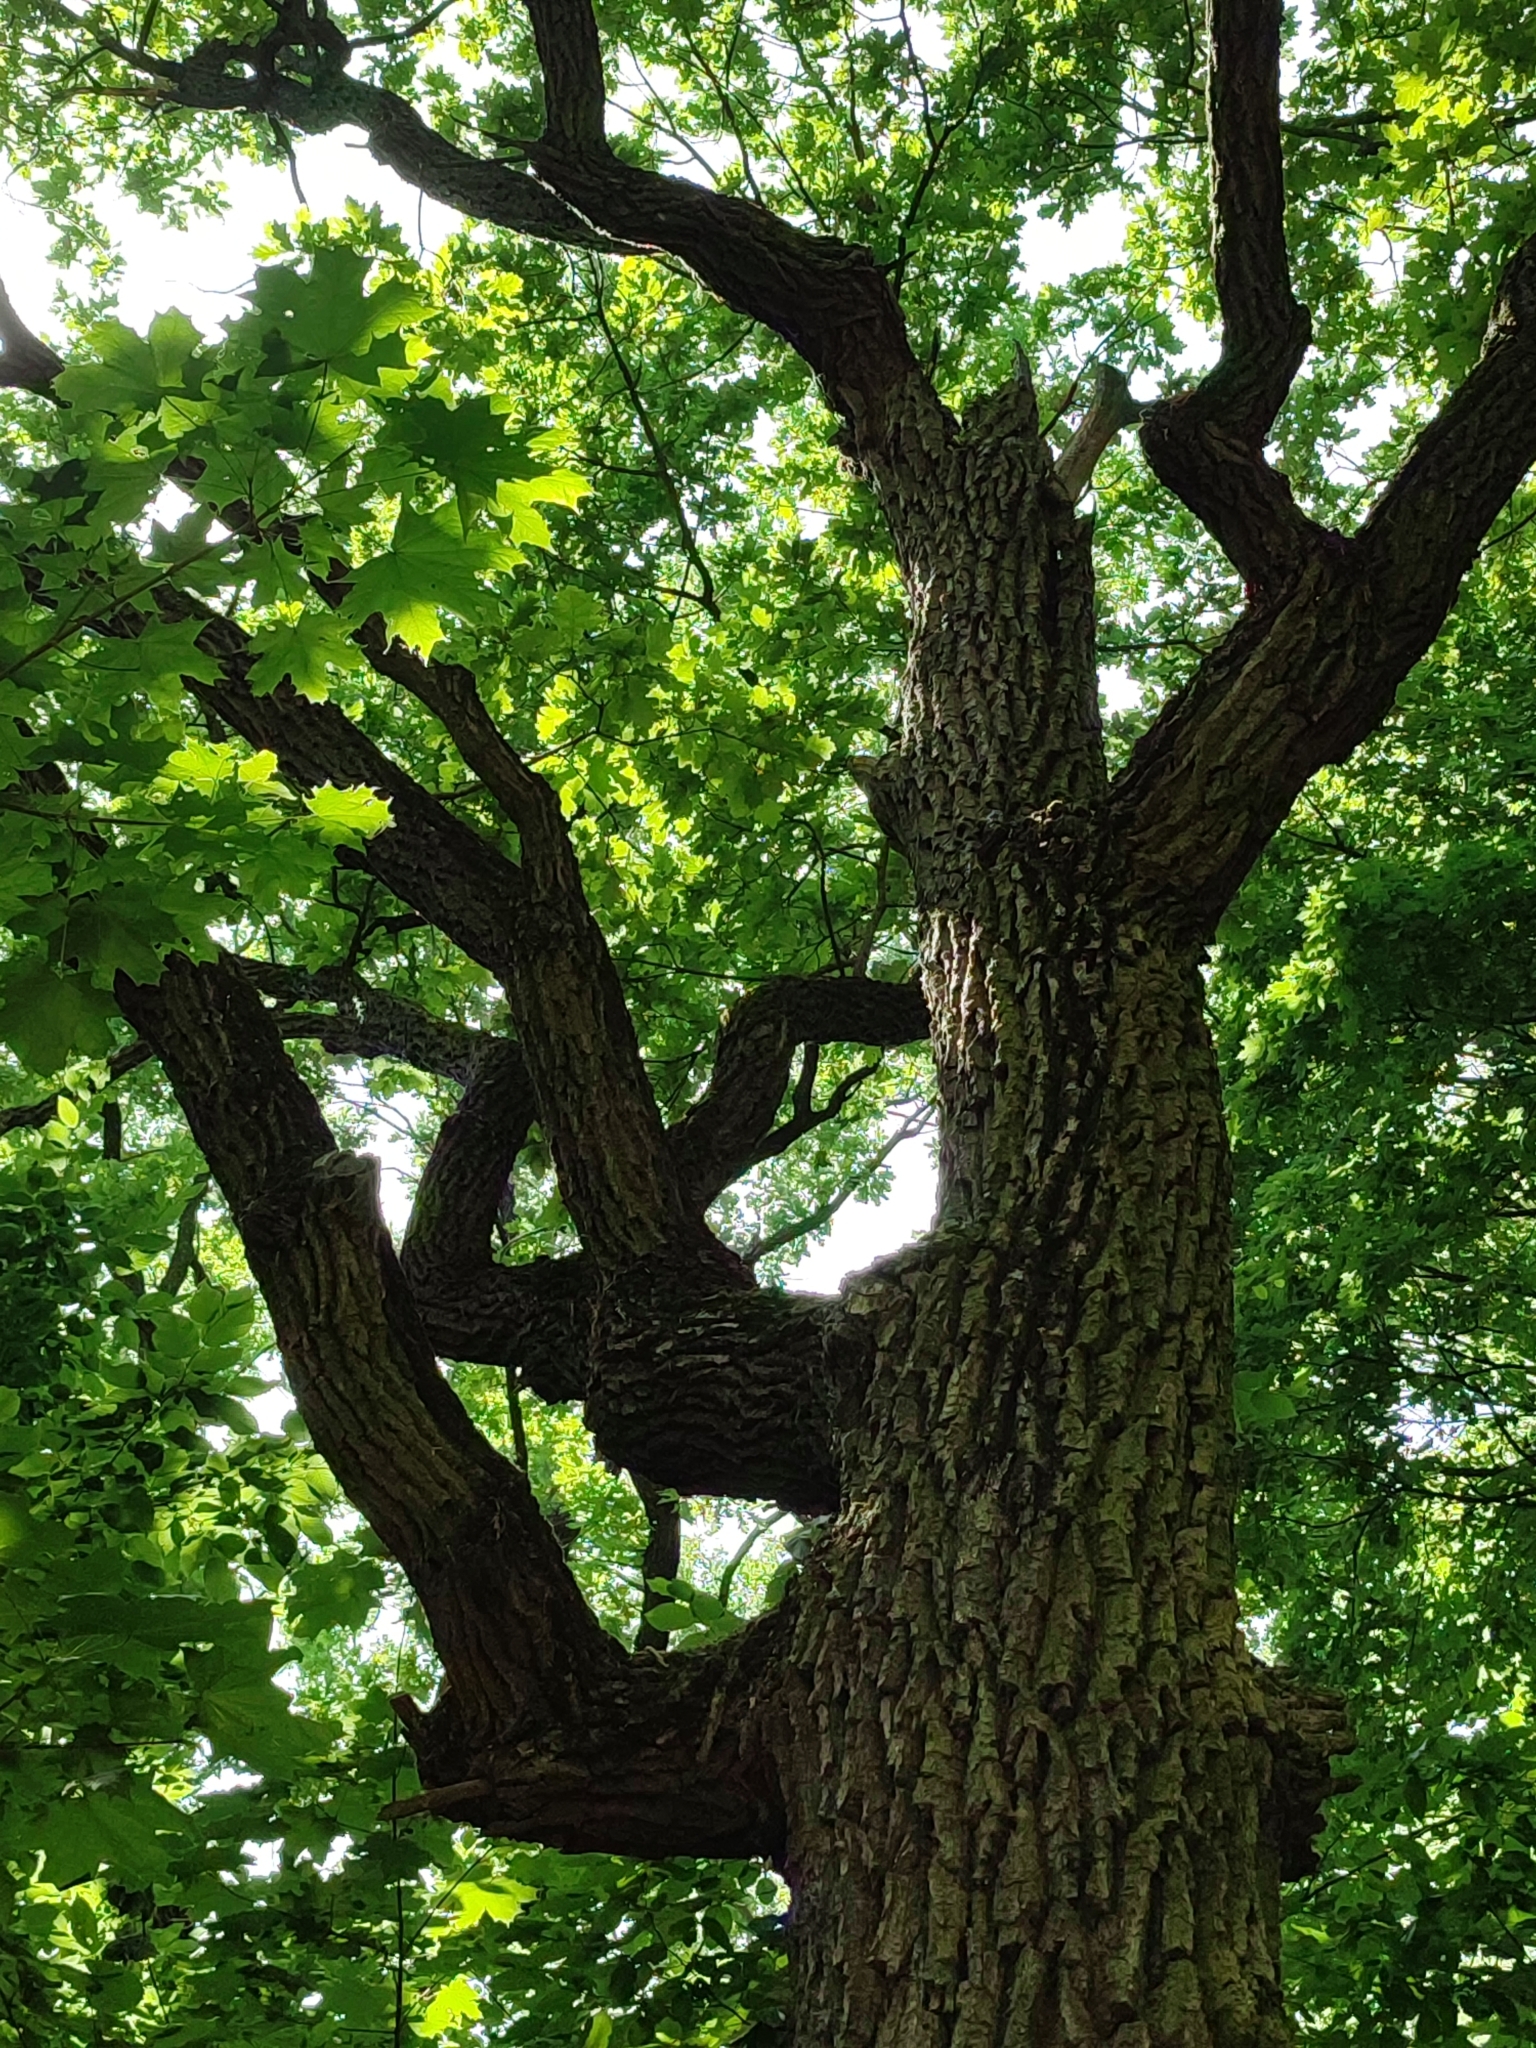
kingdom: Plantae
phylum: Tracheophyta
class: Magnoliopsida
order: Fagales
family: Fagaceae
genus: Quercus
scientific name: Quercus robur
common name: Pedunculate oak
